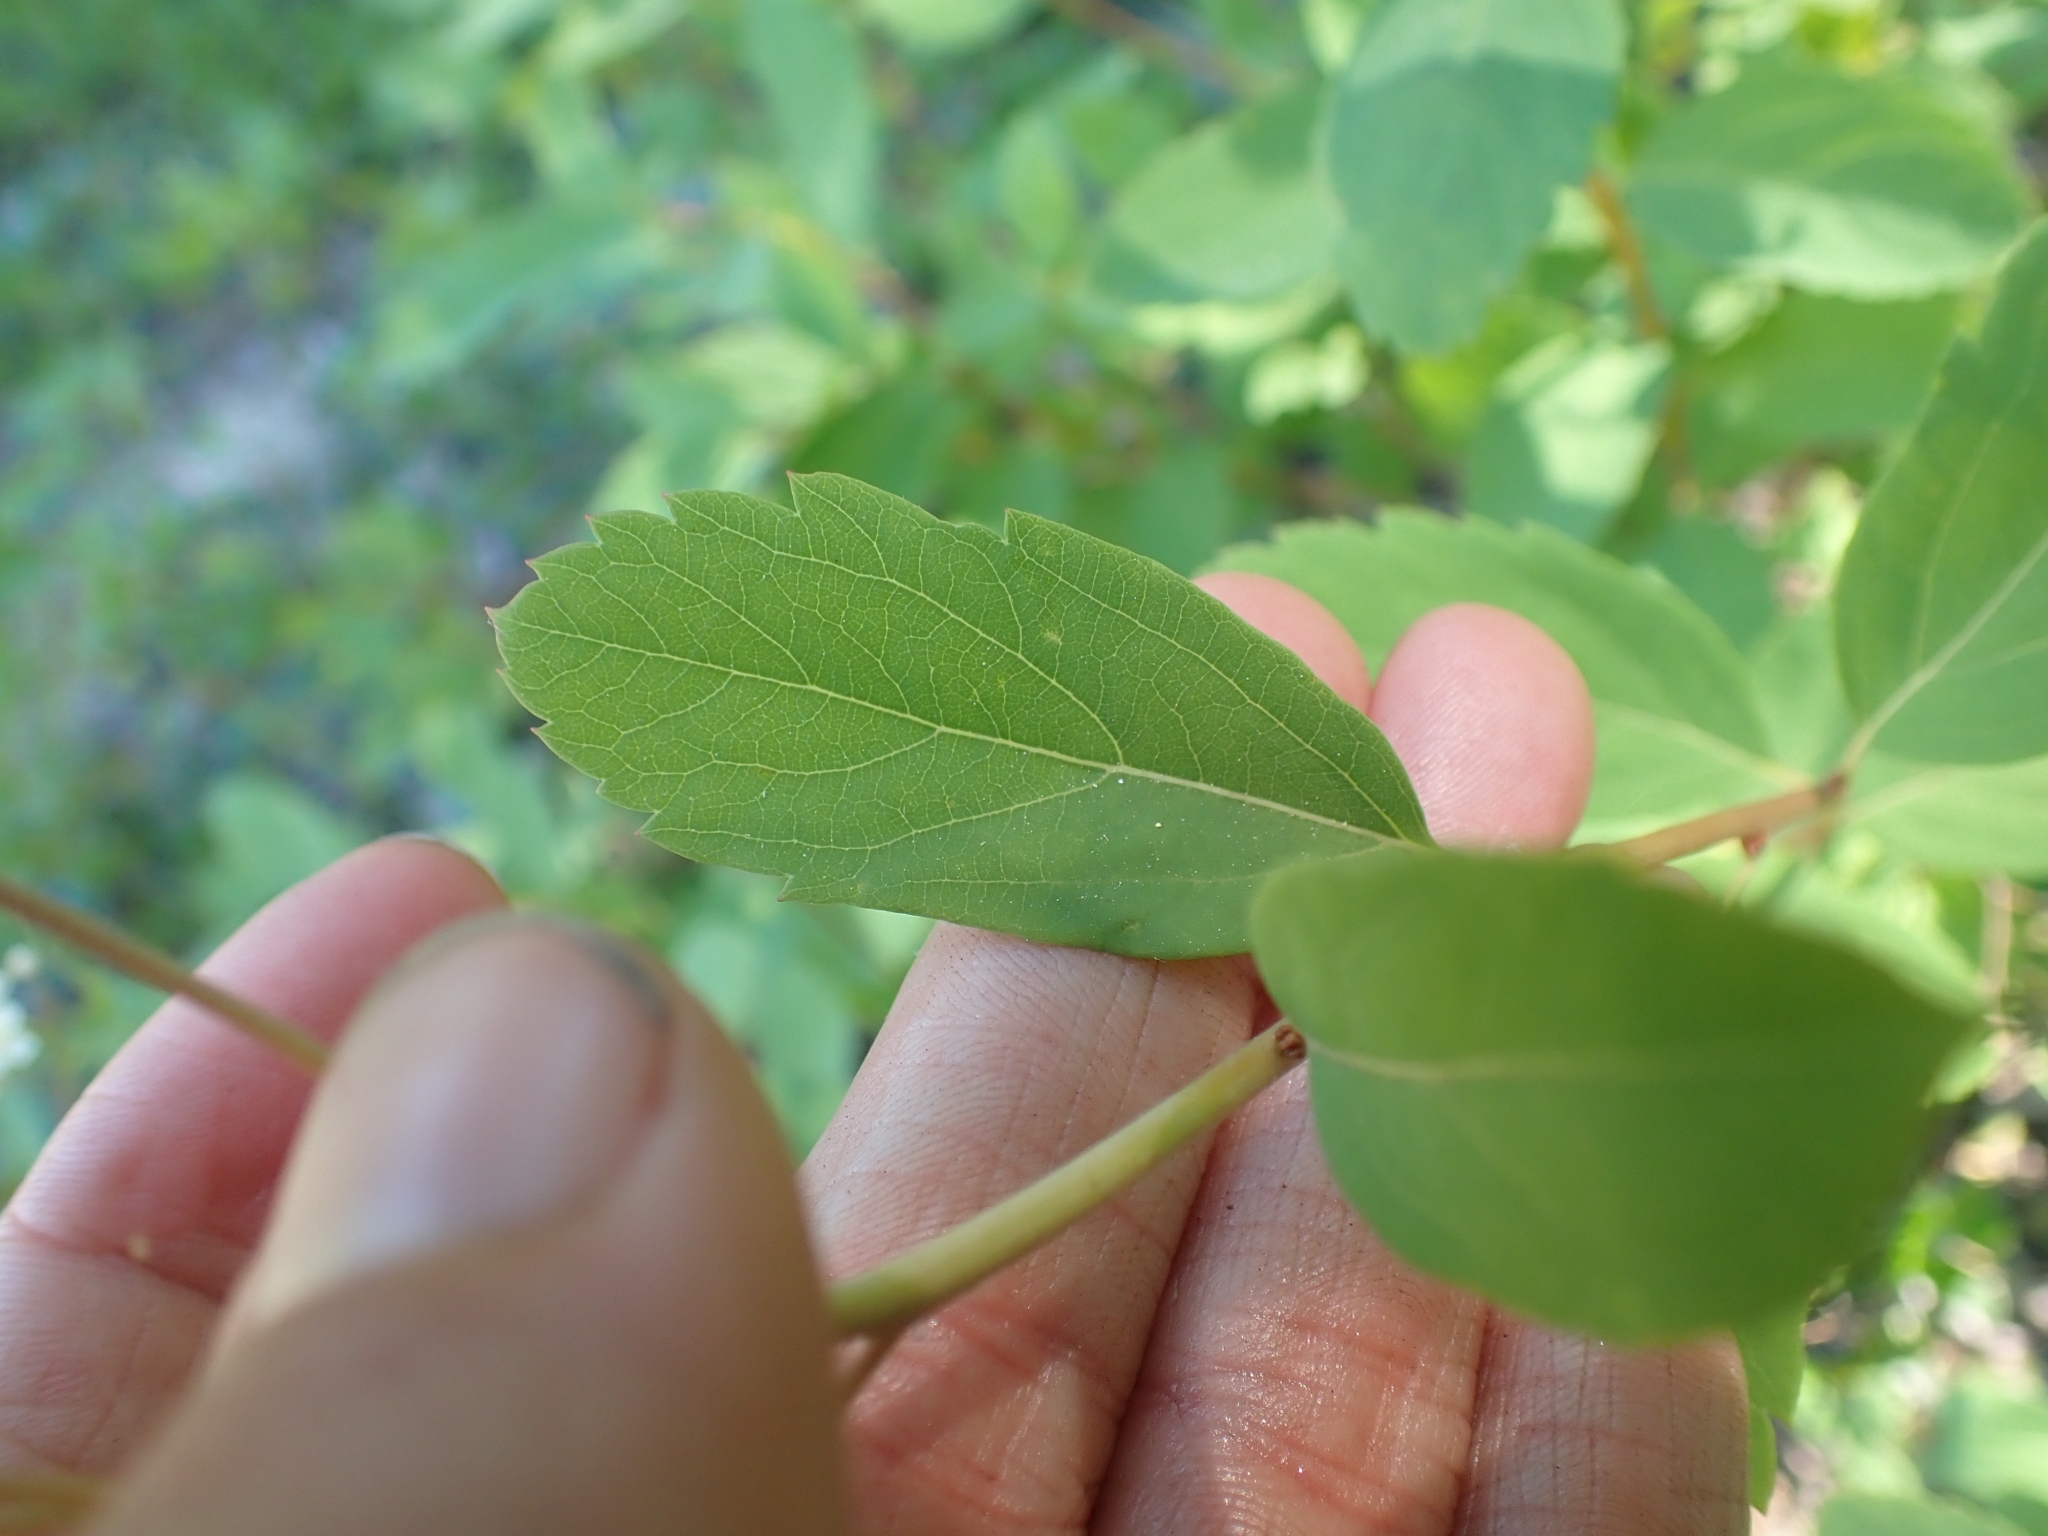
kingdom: Plantae
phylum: Tracheophyta
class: Magnoliopsida
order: Rosales
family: Rosaceae
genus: Spiraea
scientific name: Spiraea lucida
